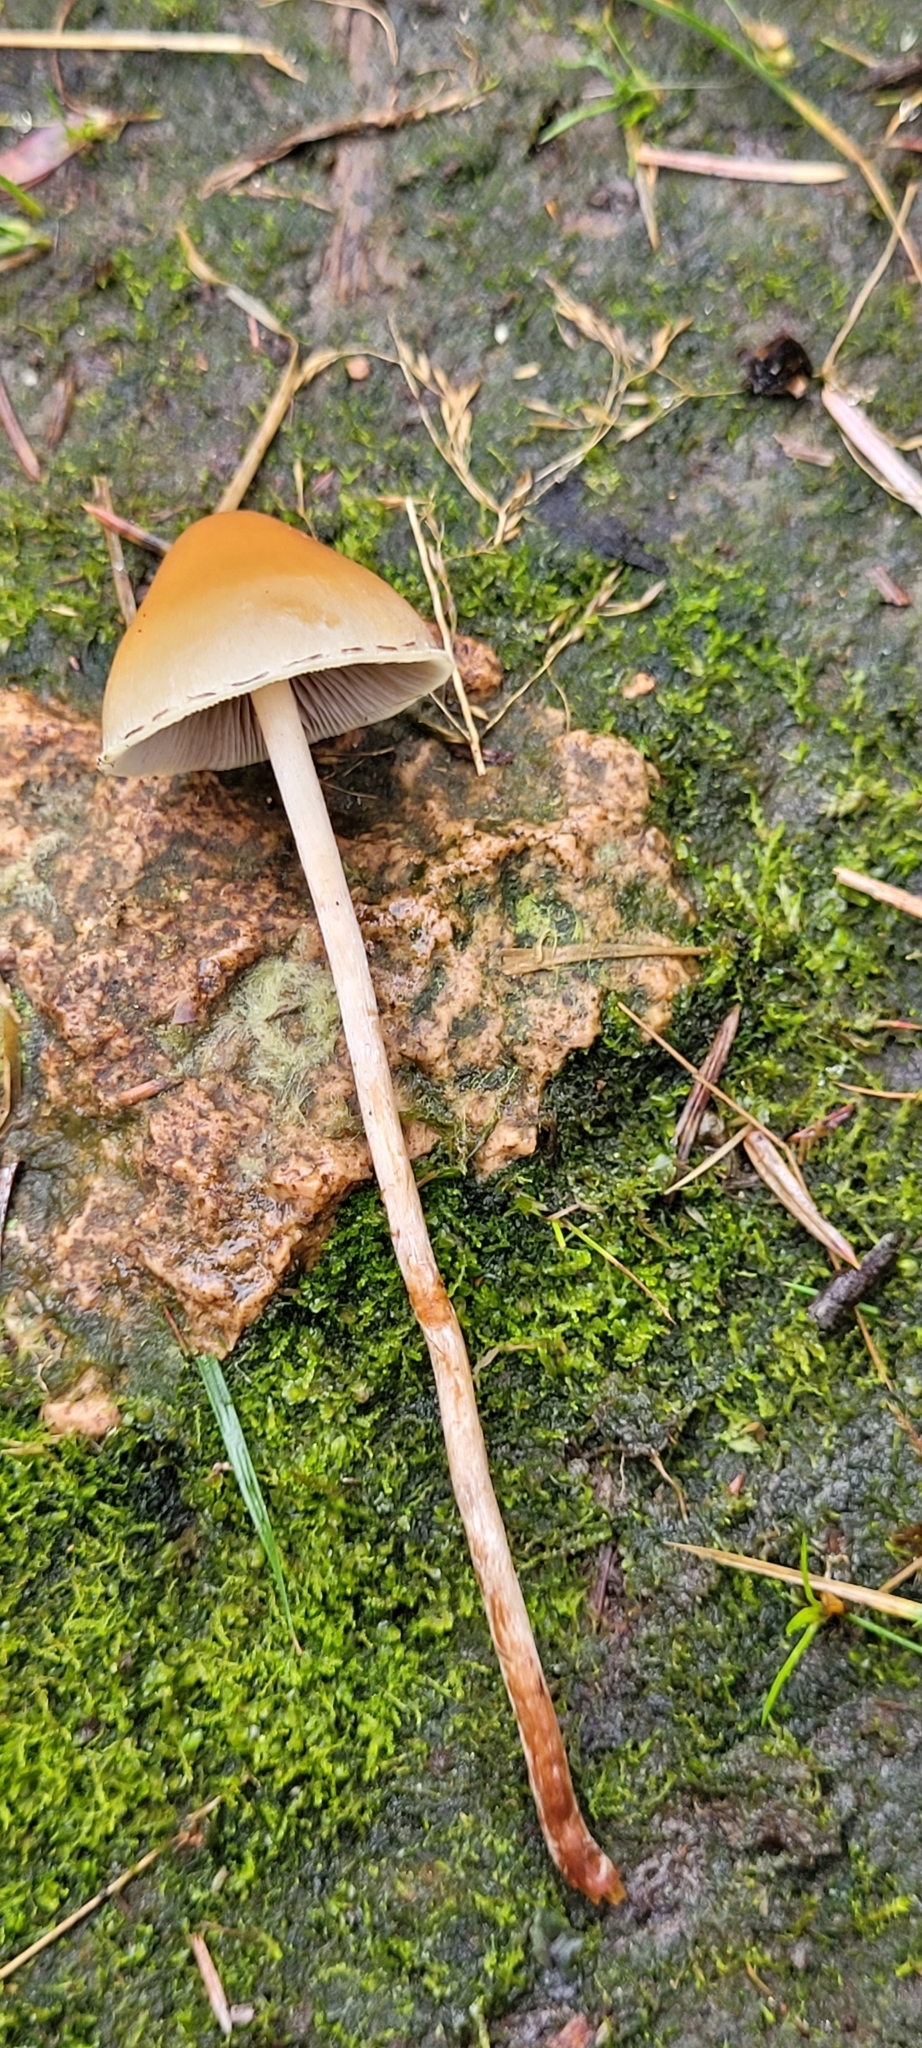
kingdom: Fungi
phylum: Basidiomycota
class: Agaricomycetes
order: Agaricales
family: Strophariaceae
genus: Hypholoma
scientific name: Hypholoma capnoides
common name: Conifer tuft
